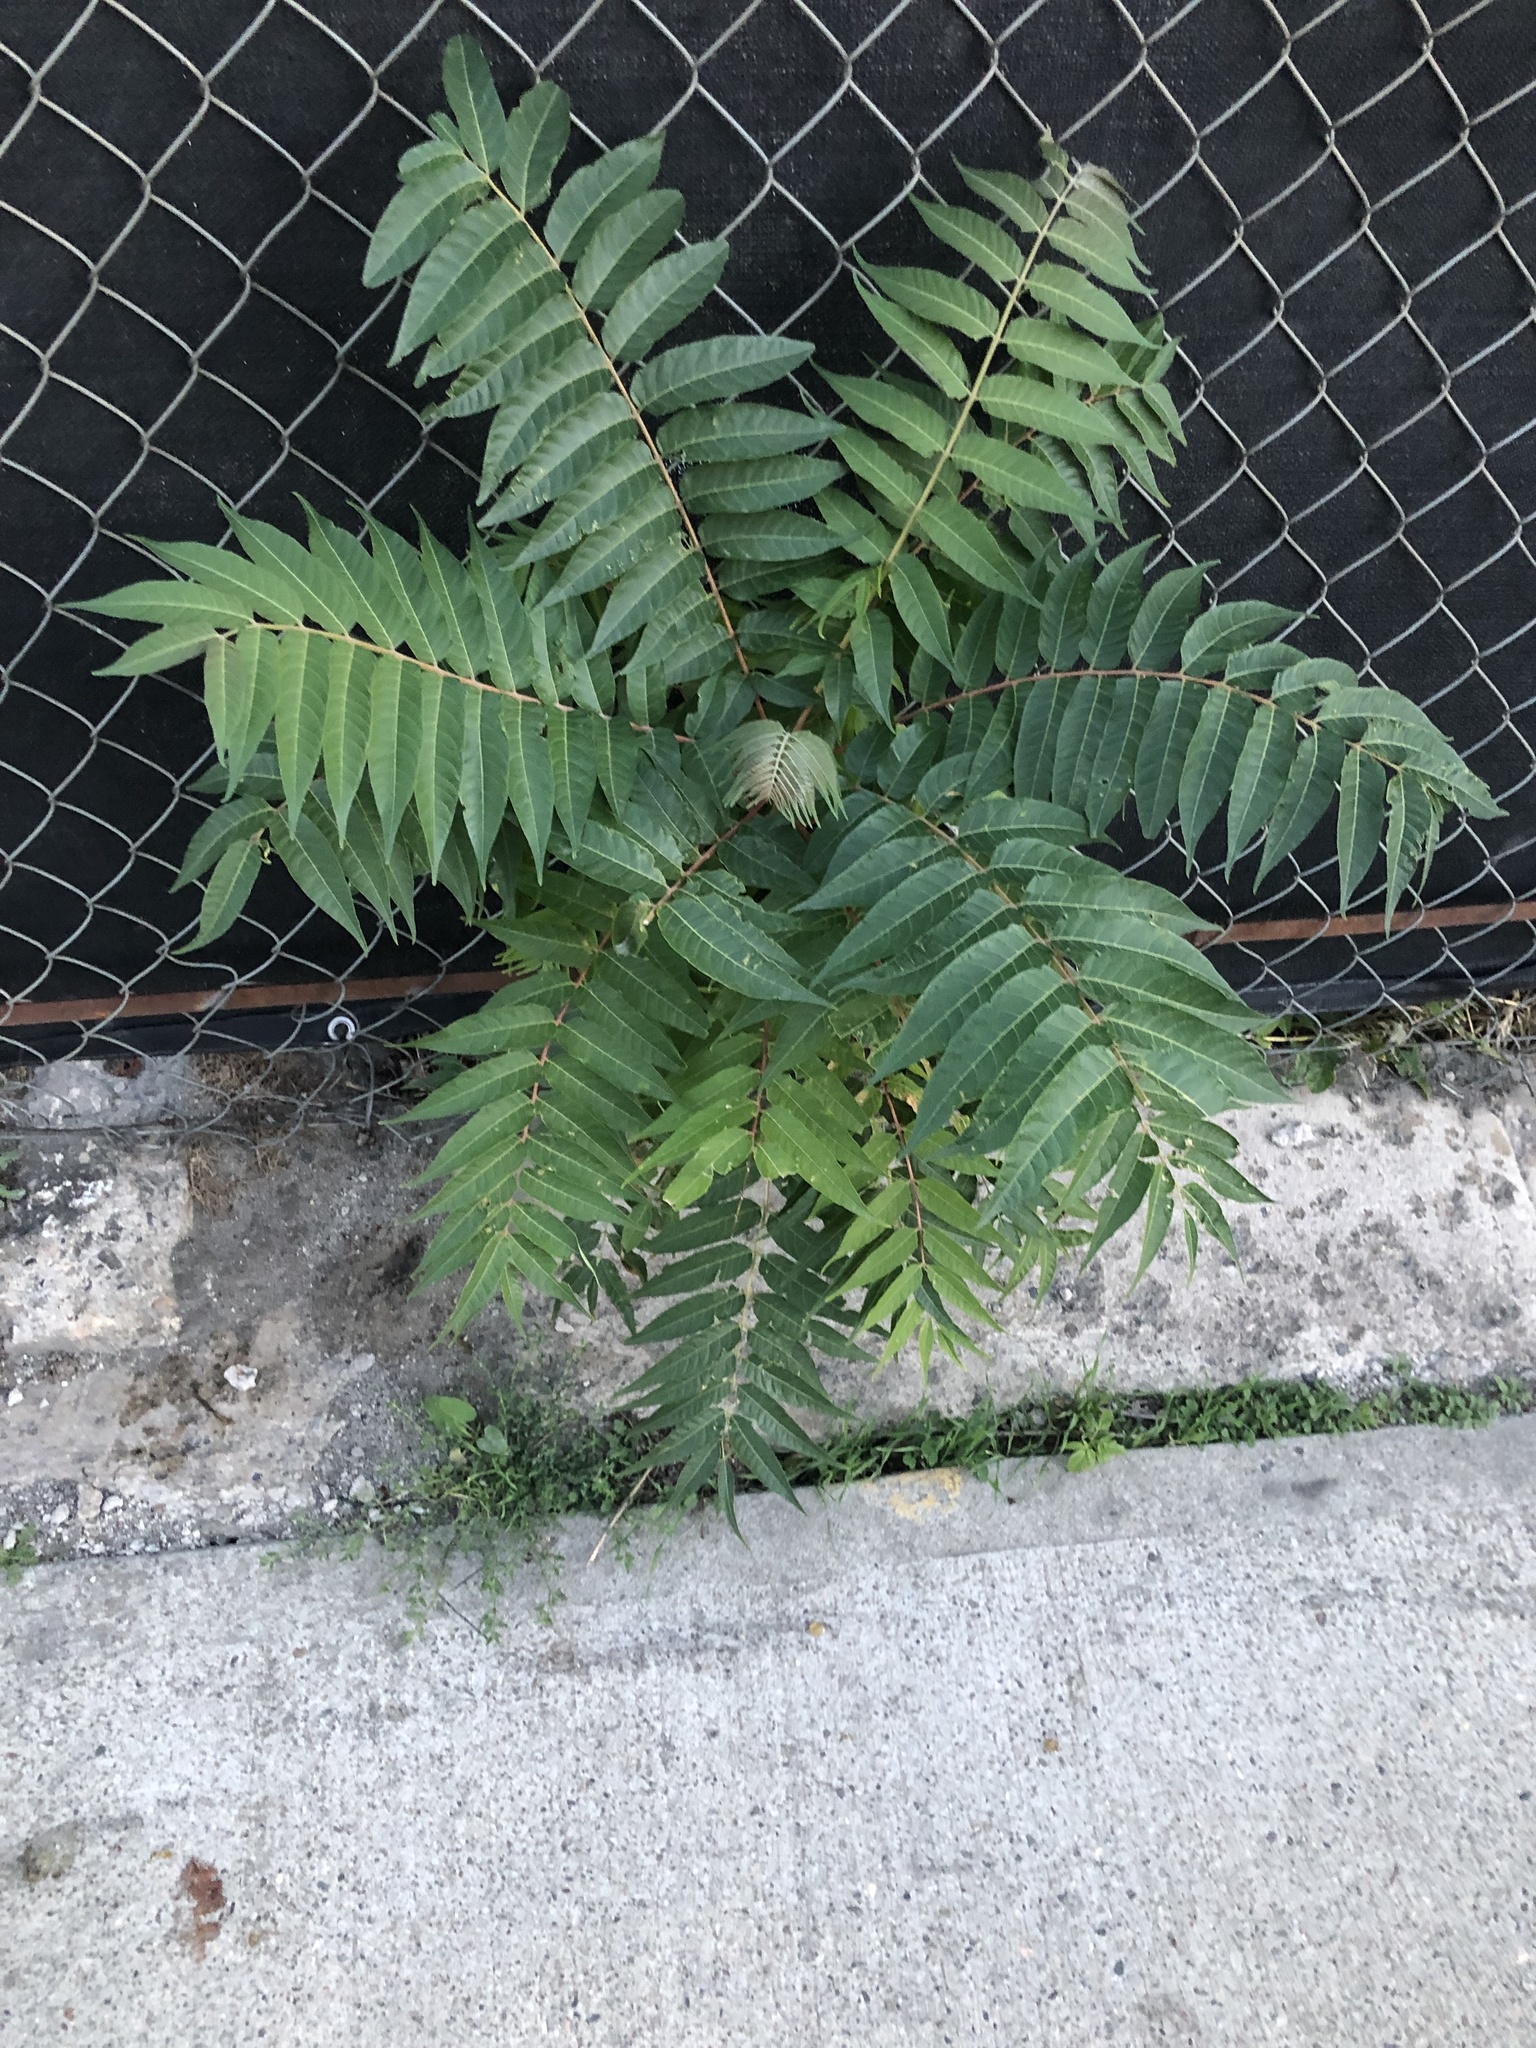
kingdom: Plantae
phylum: Tracheophyta
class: Magnoliopsida
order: Sapindales
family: Simaroubaceae
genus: Ailanthus
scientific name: Ailanthus altissima
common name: Tree-of-heaven
